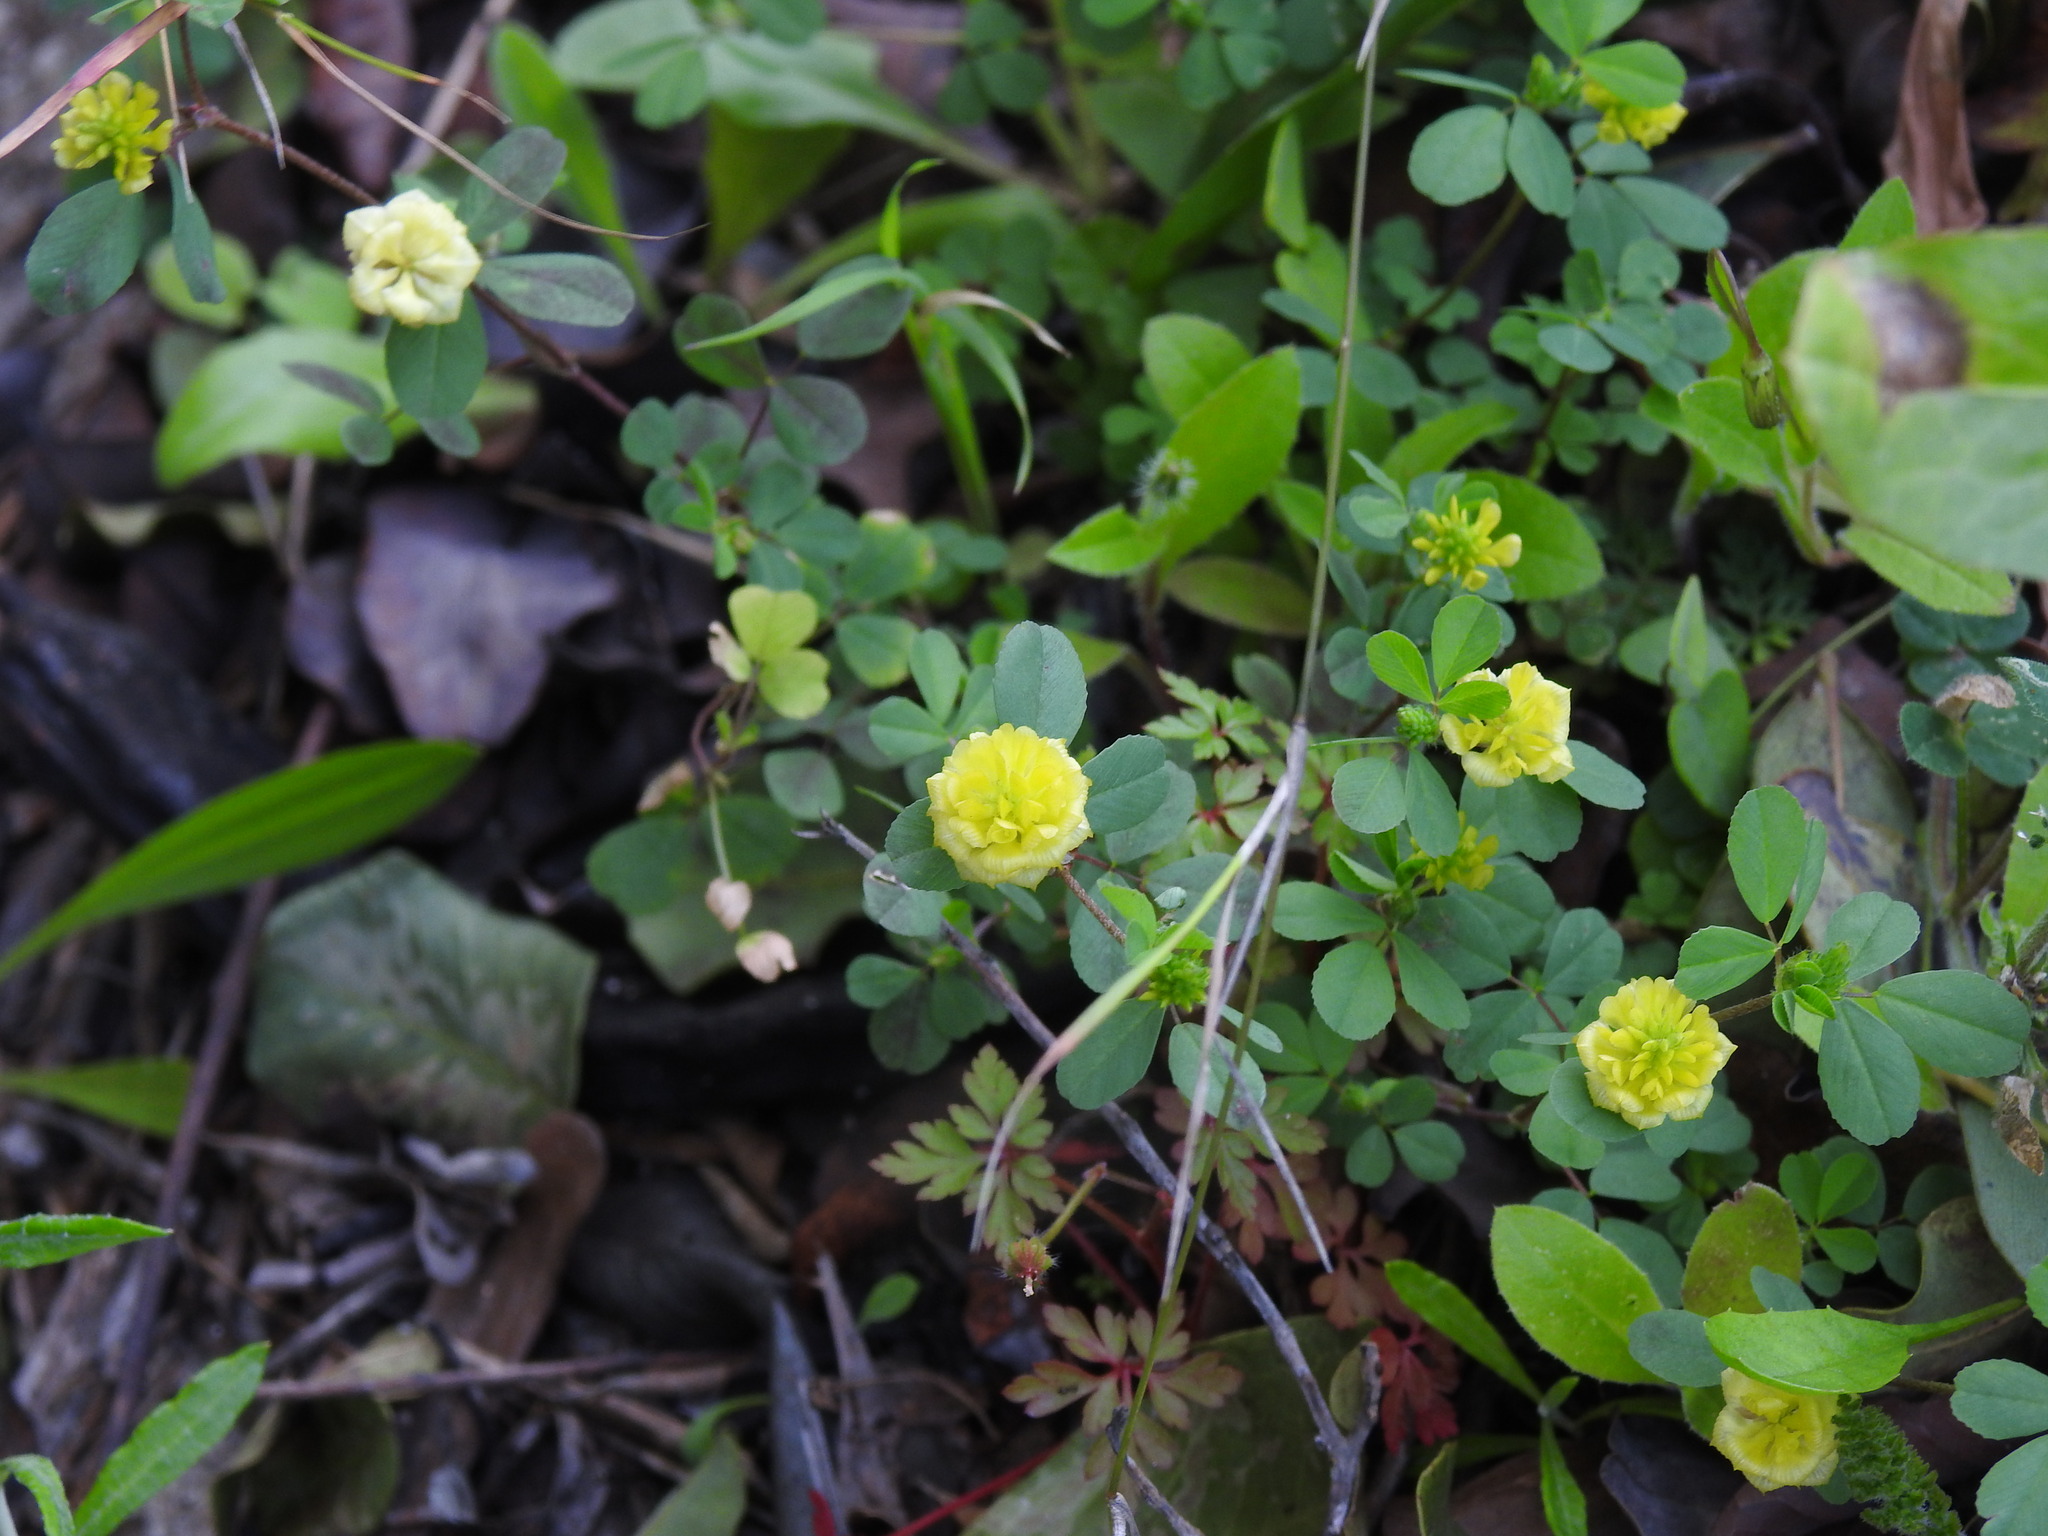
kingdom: Plantae
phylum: Tracheophyta
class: Magnoliopsida
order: Fabales
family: Fabaceae
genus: Trifolium
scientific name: Trifolium campestre
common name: Field clover
